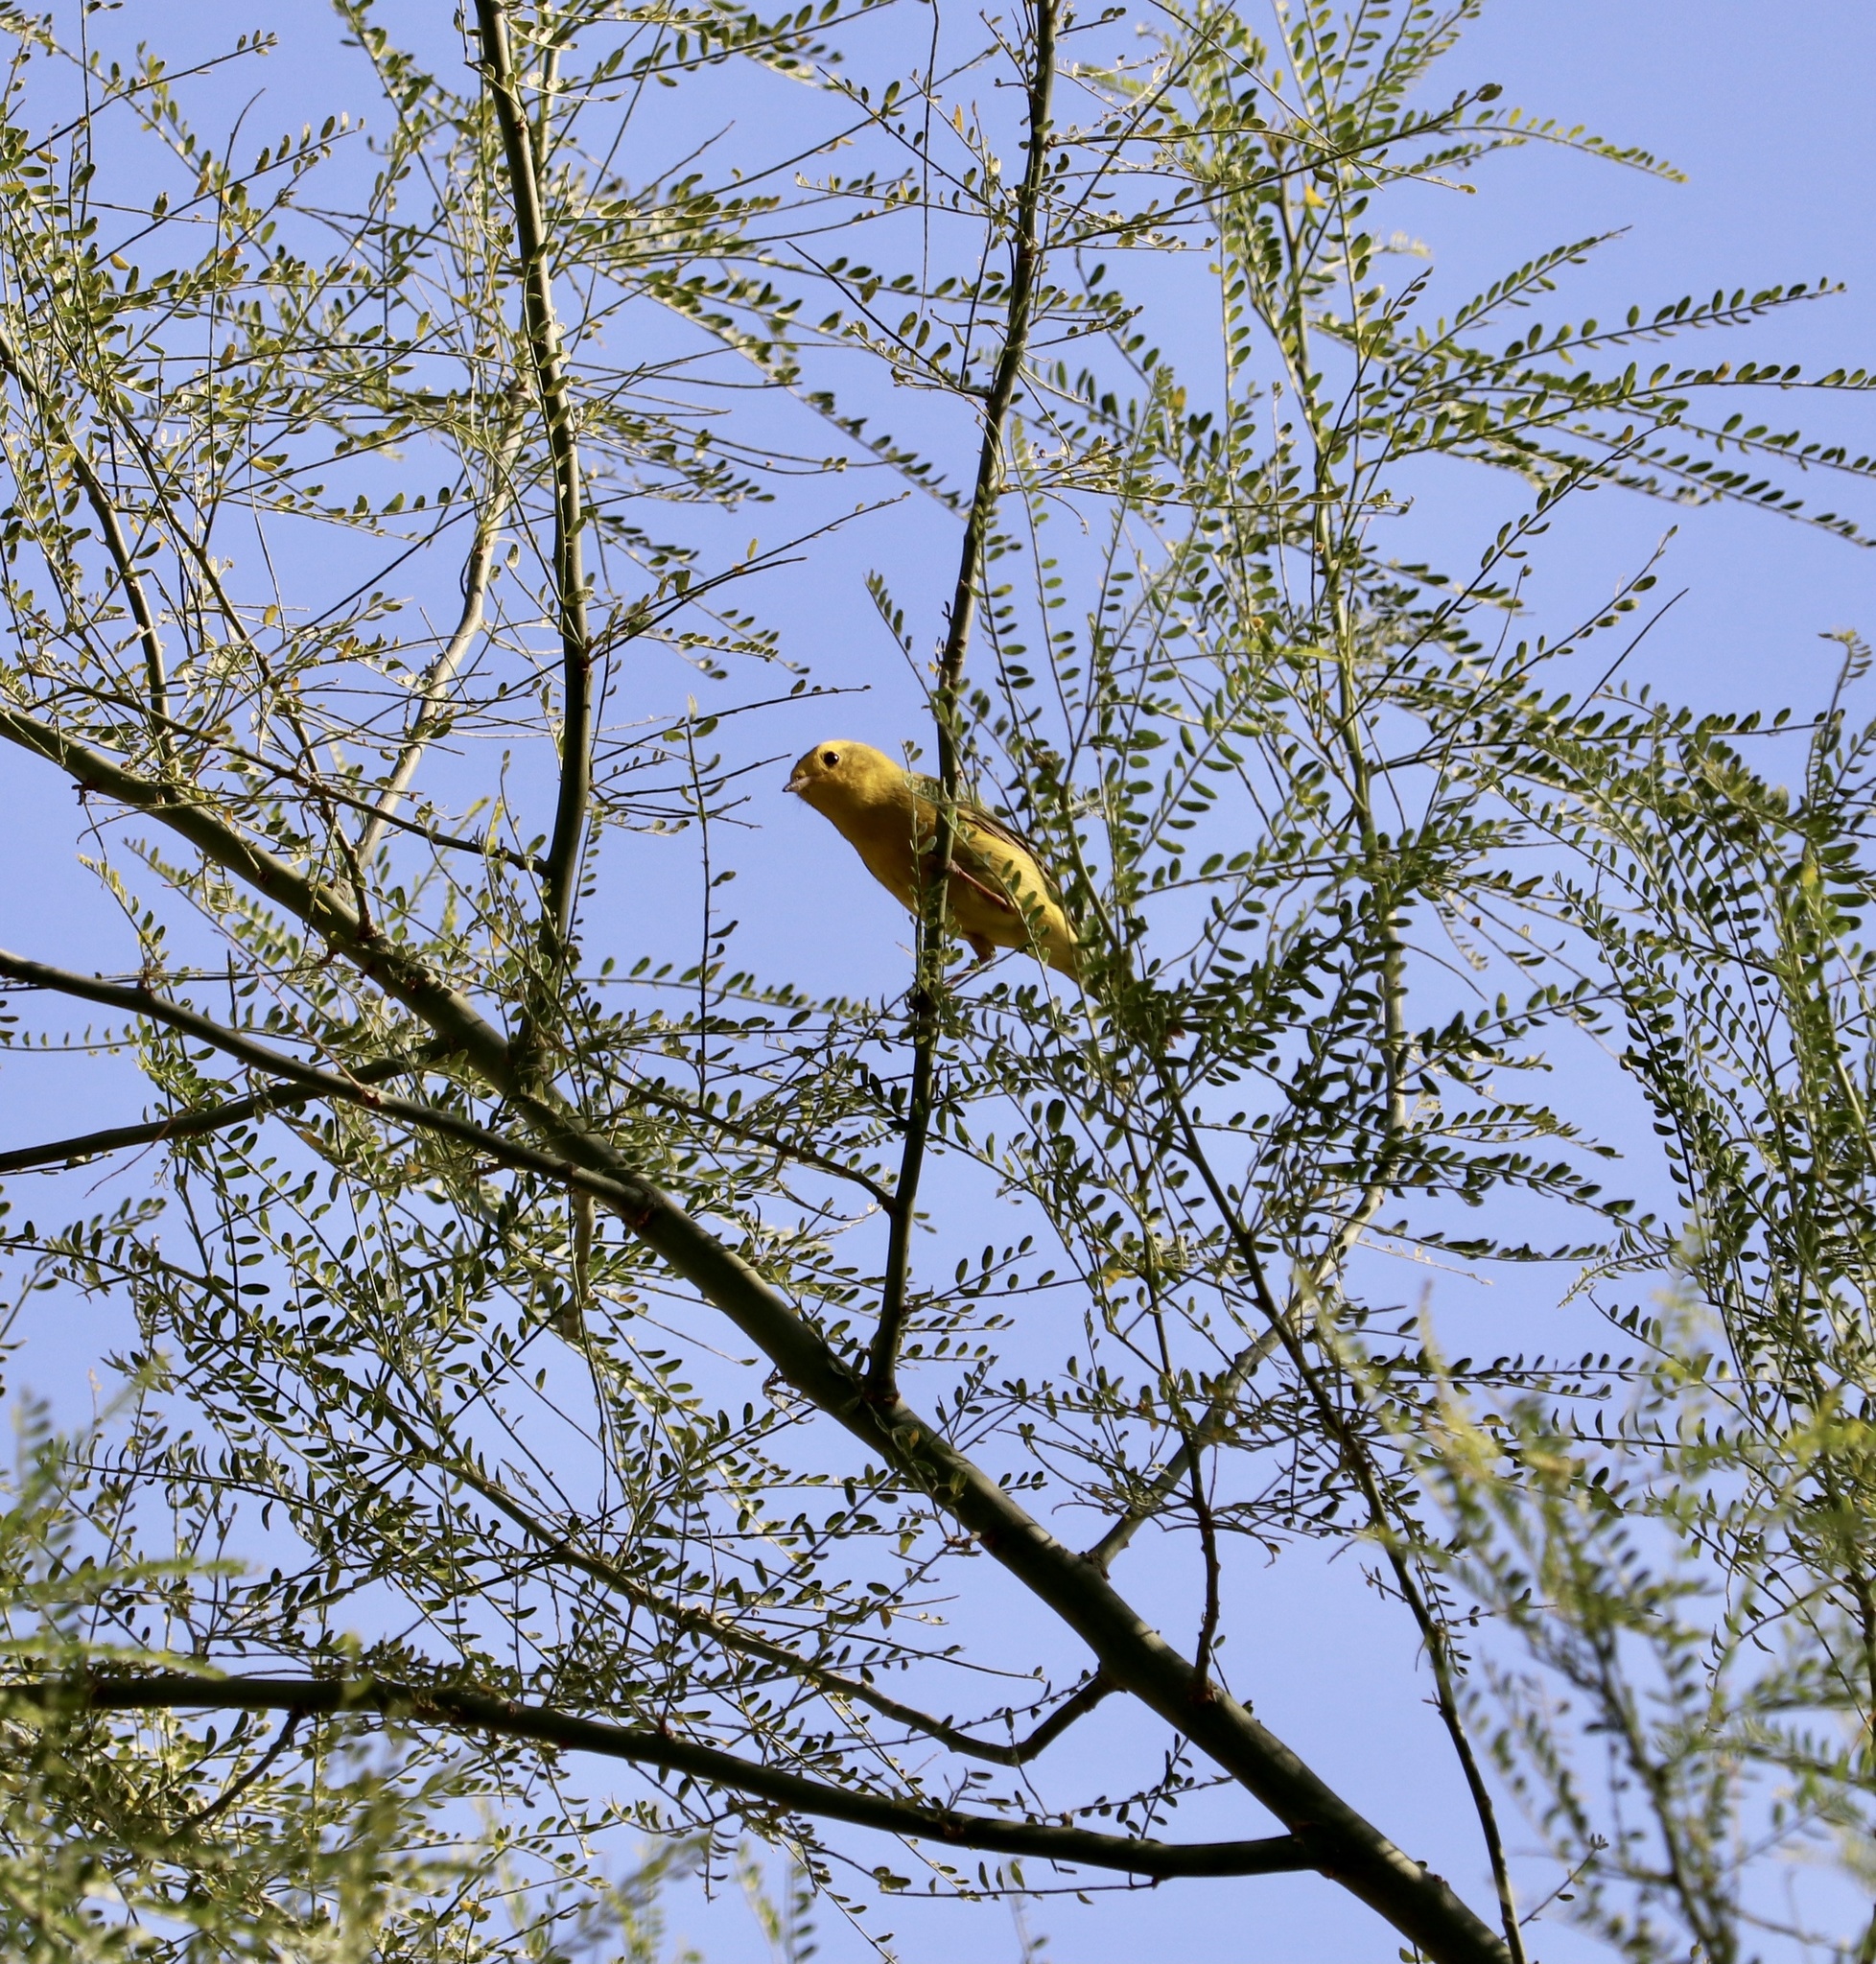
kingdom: Animalia
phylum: Chordata
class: Aves
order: Passeriformes
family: Parulidae
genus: Cardellina
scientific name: Cardellina pusilla
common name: Wilson's warbler
